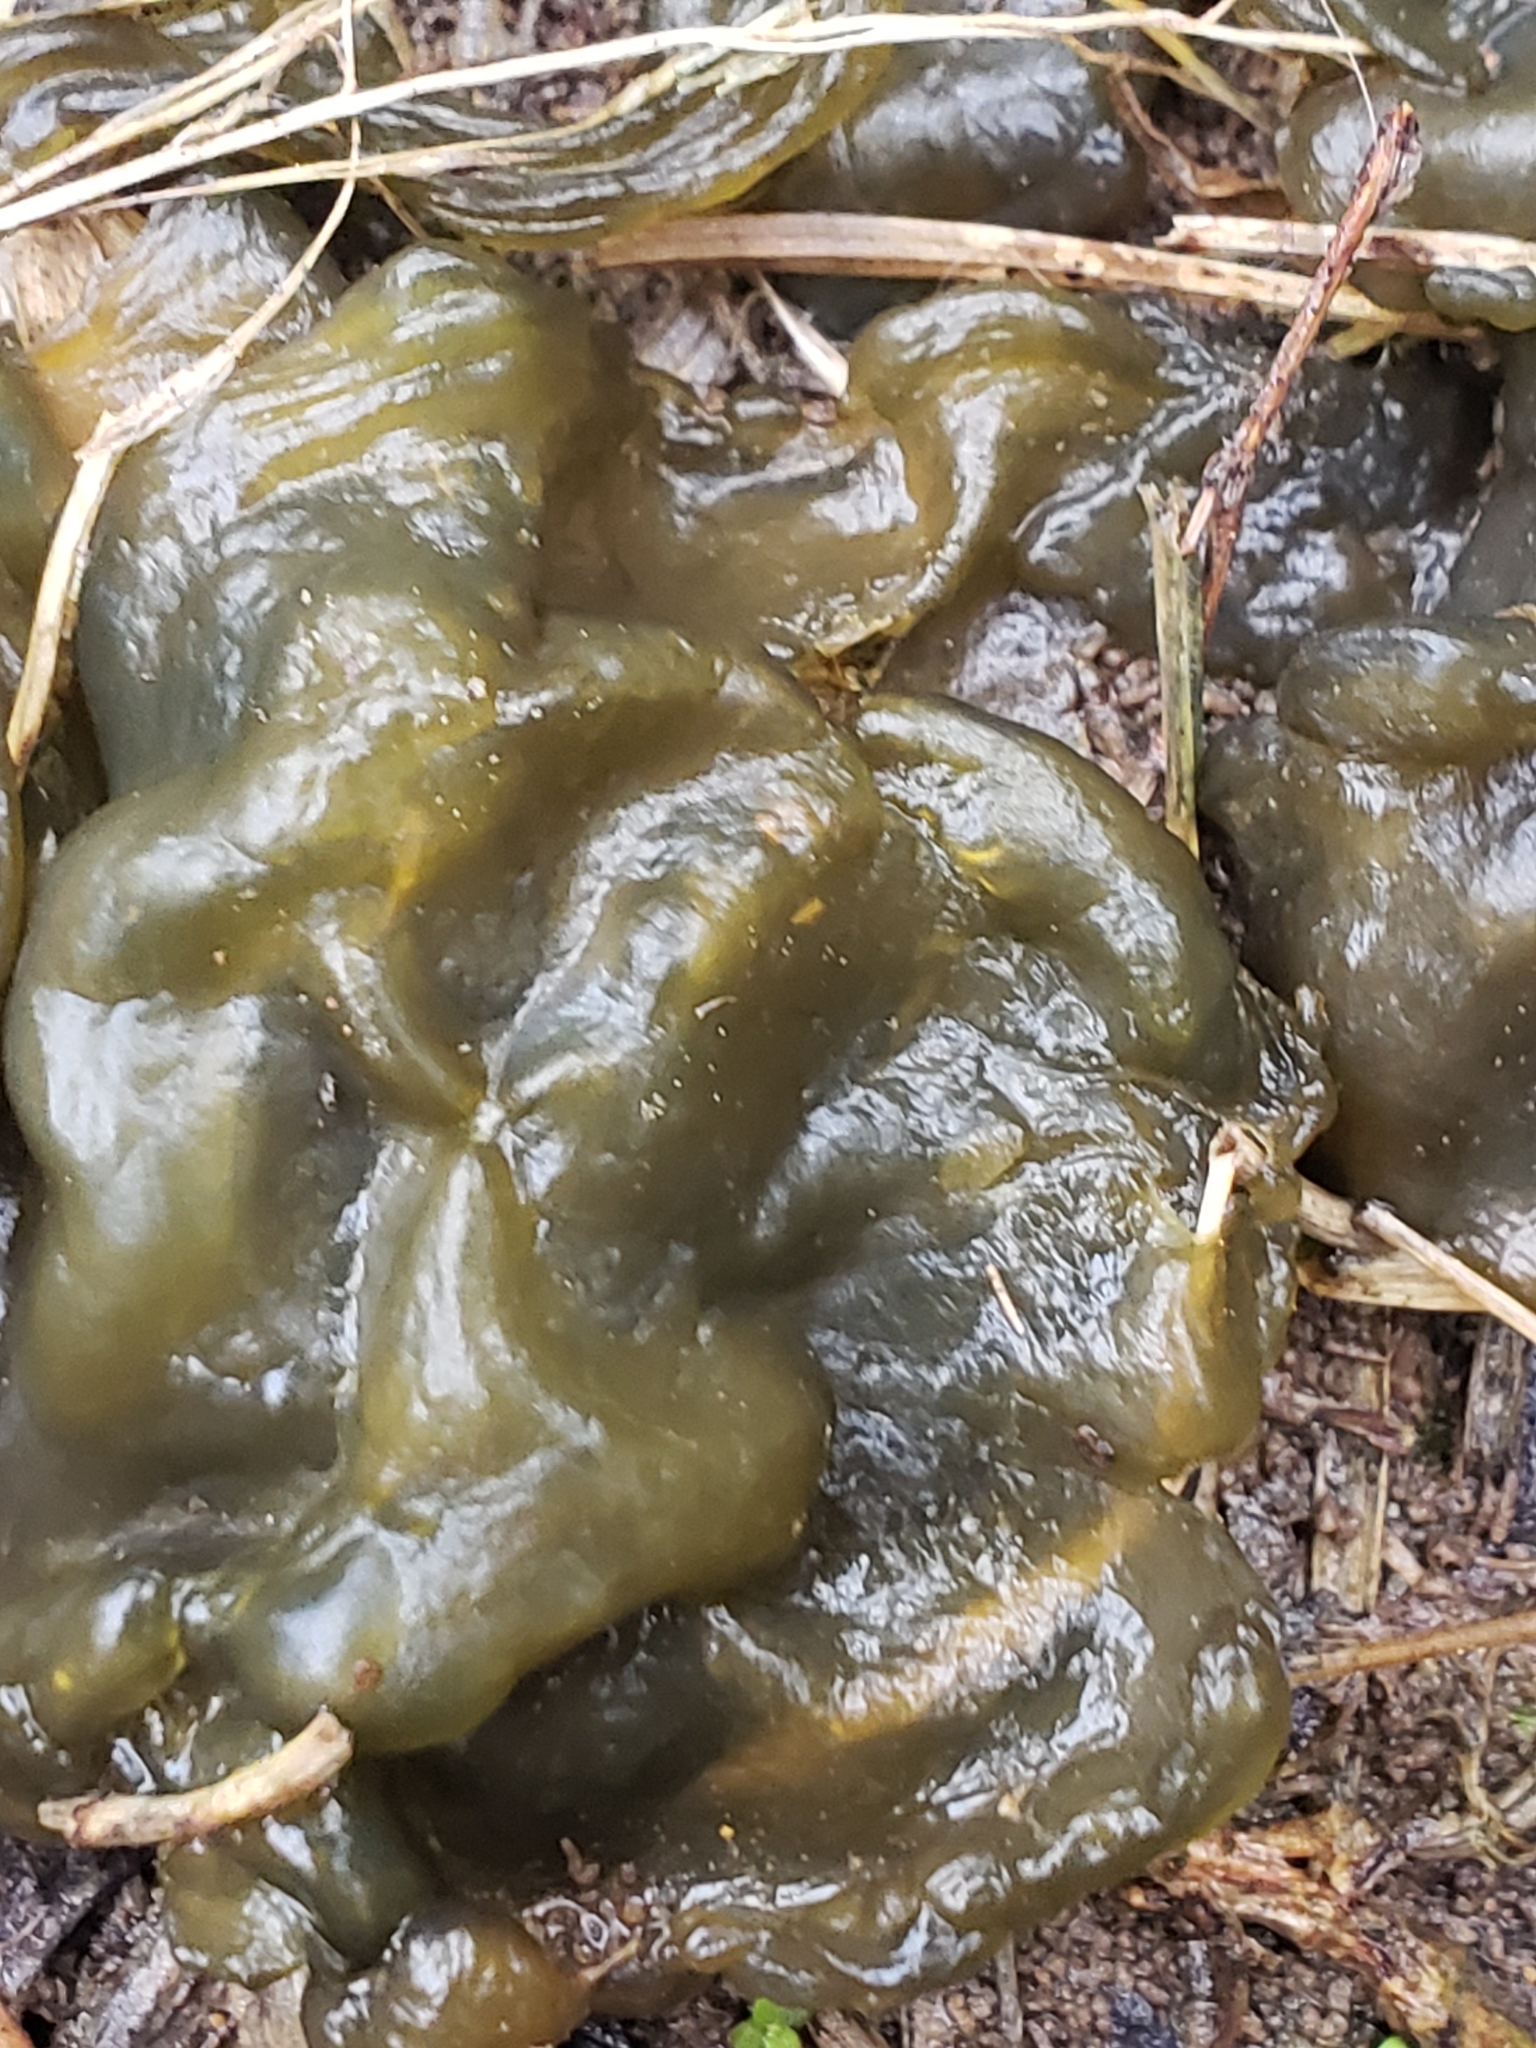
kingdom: Bacteria
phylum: Cyanobacteria
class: Cyanobacteriia
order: Cyanobacteriales
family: Nostocaceae
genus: Nostoc
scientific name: Nostoc commune
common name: Star jelly
